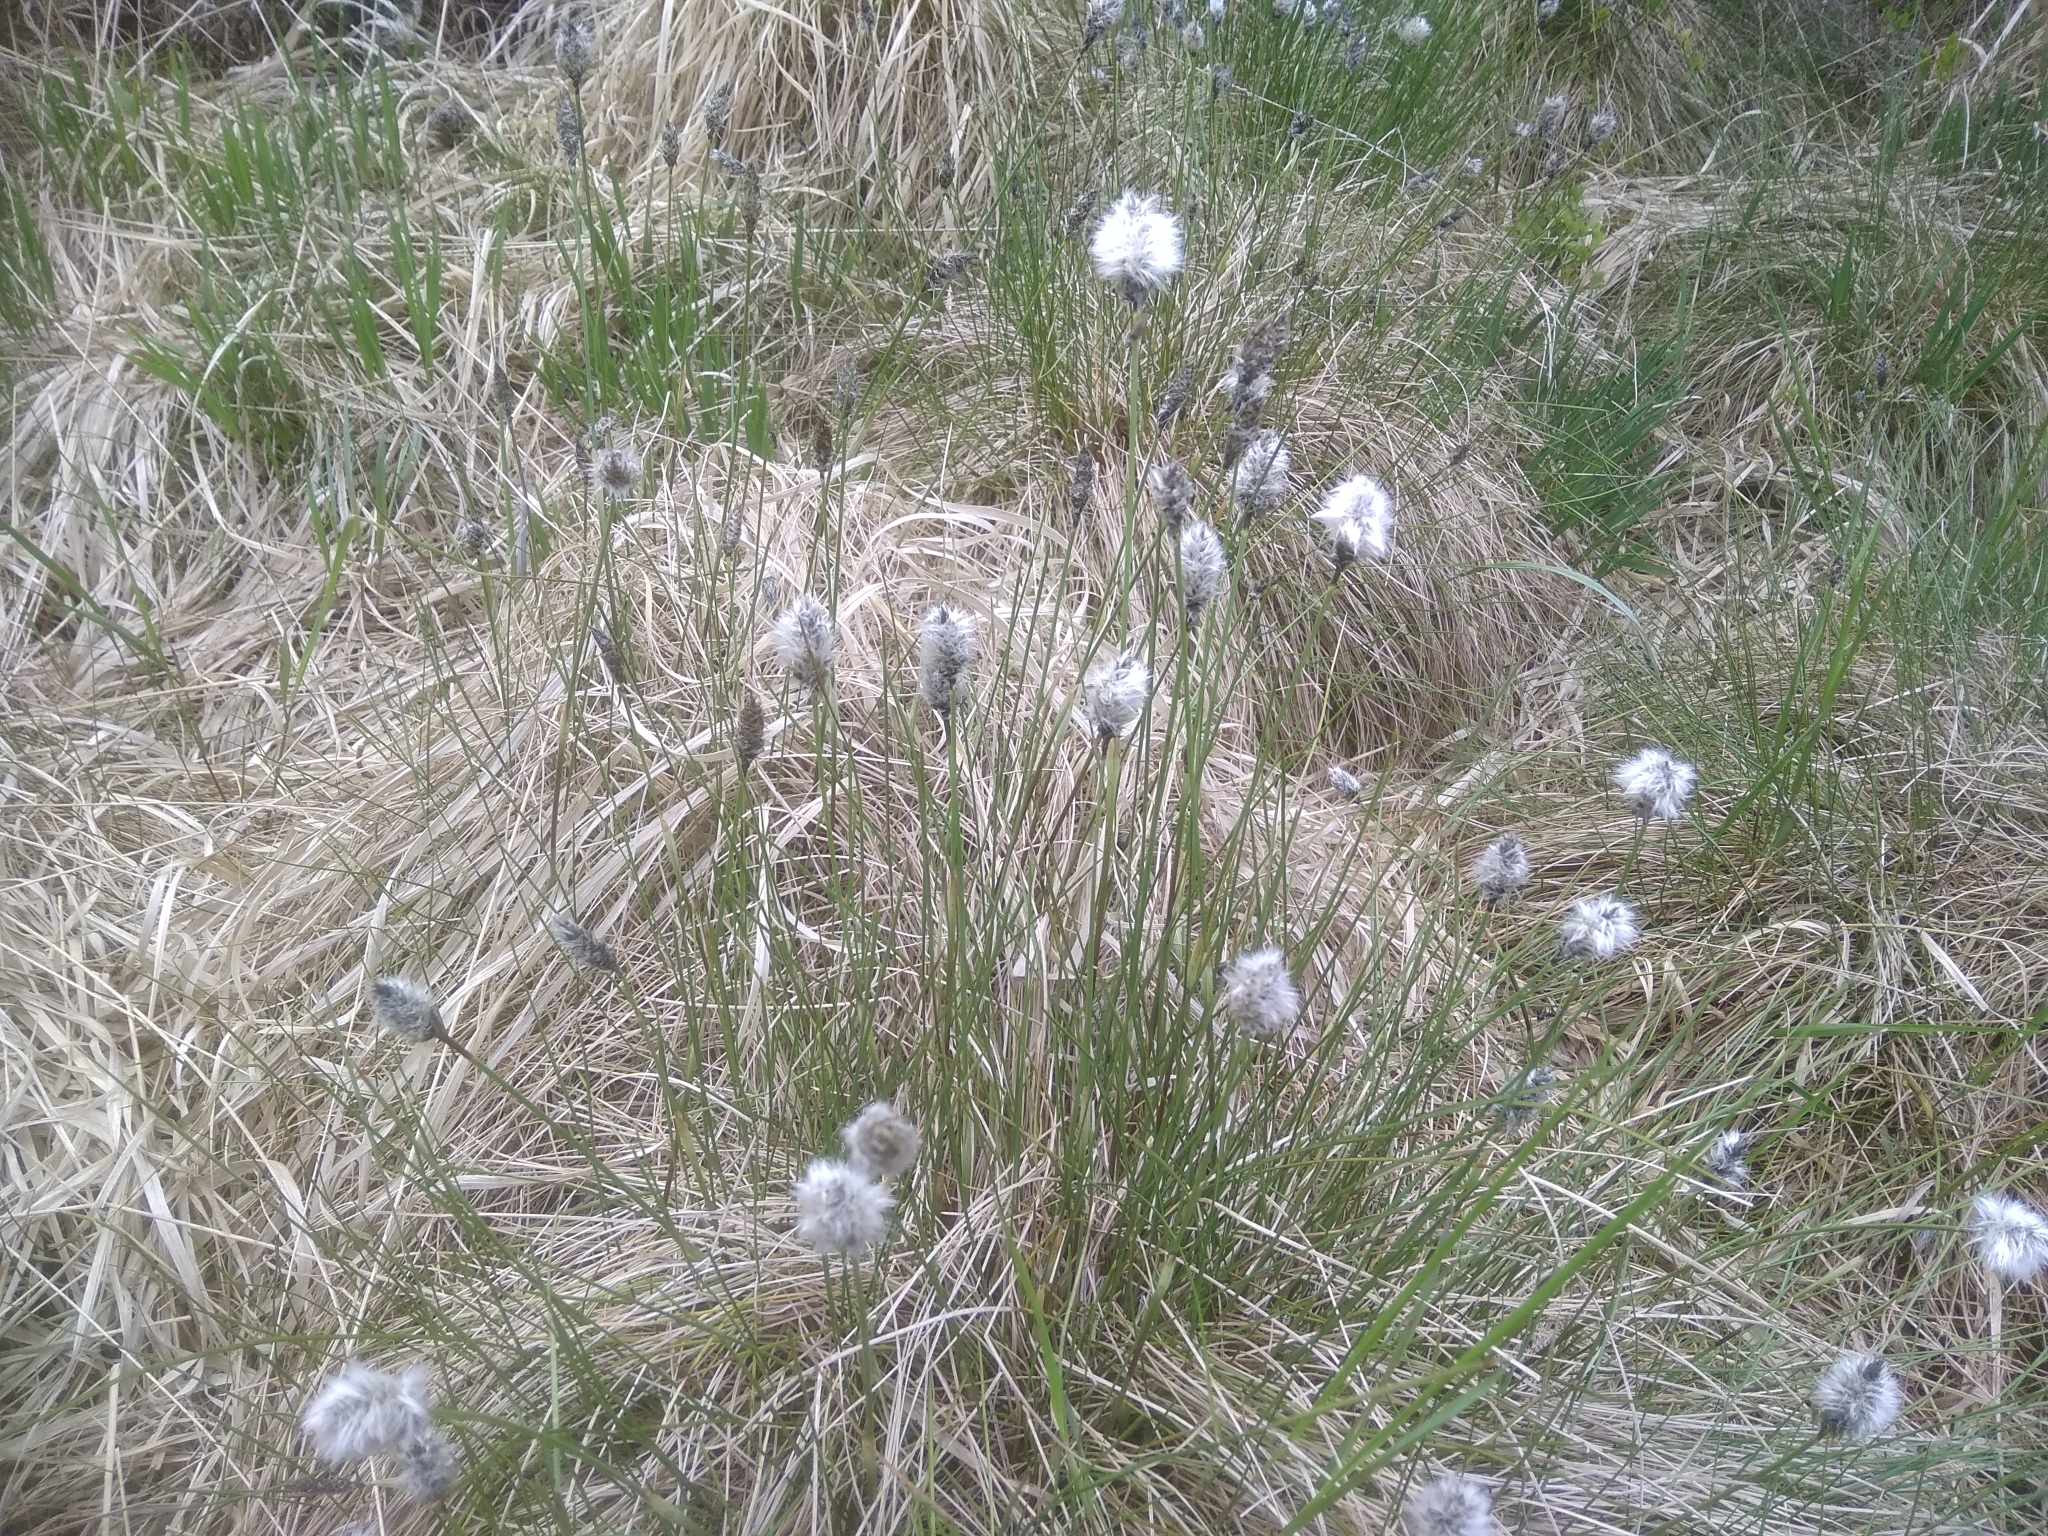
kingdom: Plantae
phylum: Tracheophyta
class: Liliopsida
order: Poales
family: Cyperaceae
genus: Eriophorum
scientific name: Eriophorum vaginatum
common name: Hare's-tail cottongrass
